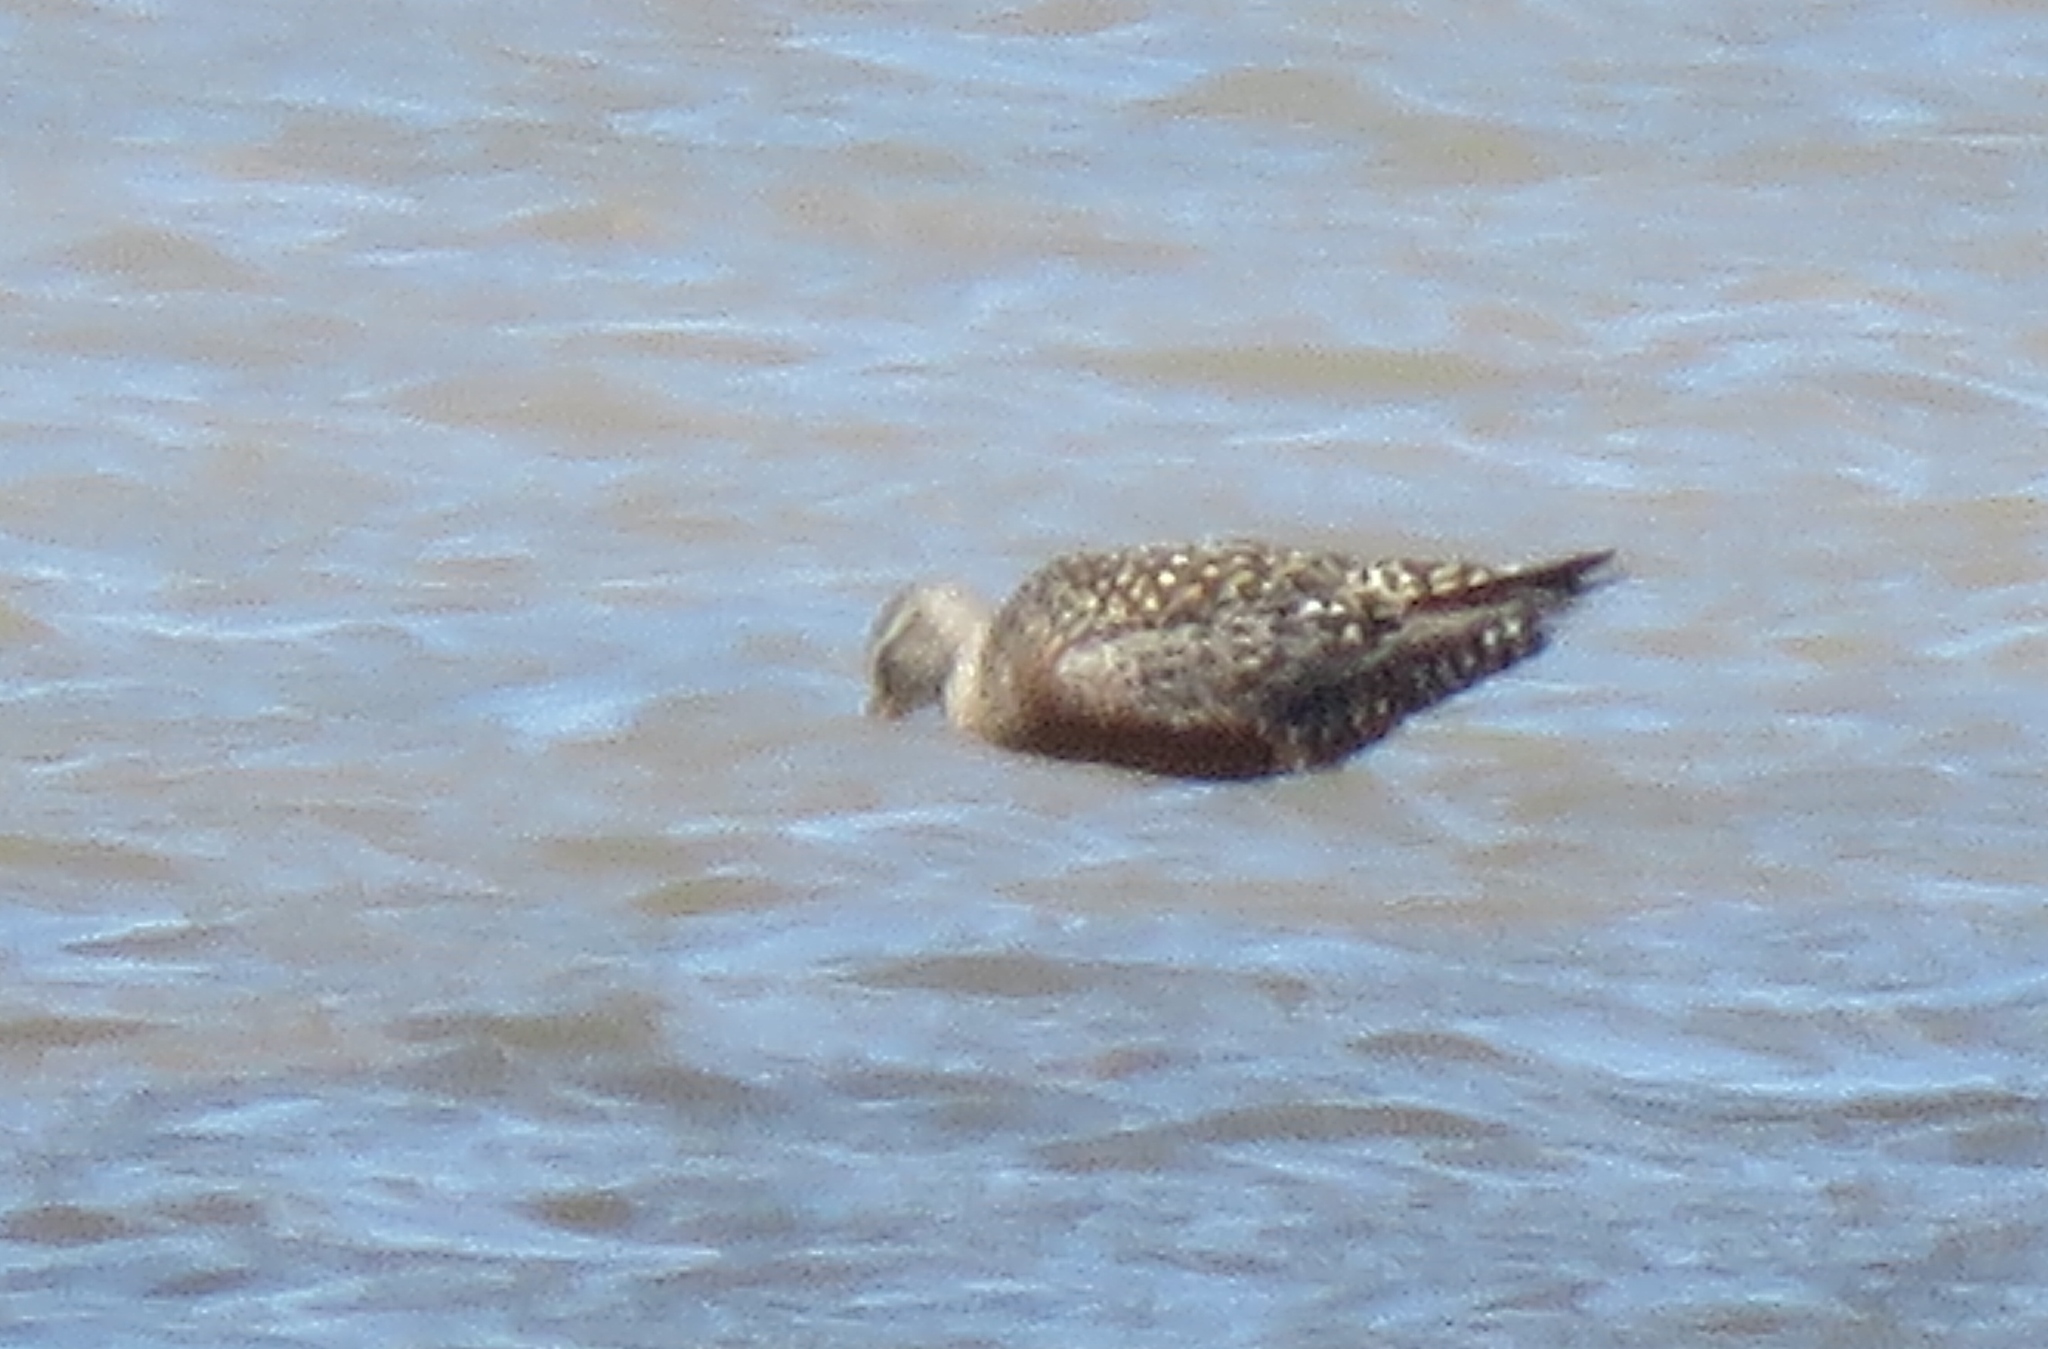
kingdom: Animalia
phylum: Chordata
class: Aves
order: Charadriiformes
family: Scolopacidae
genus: Limosa
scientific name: Limosa haemastica
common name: Hudsonian godwit
